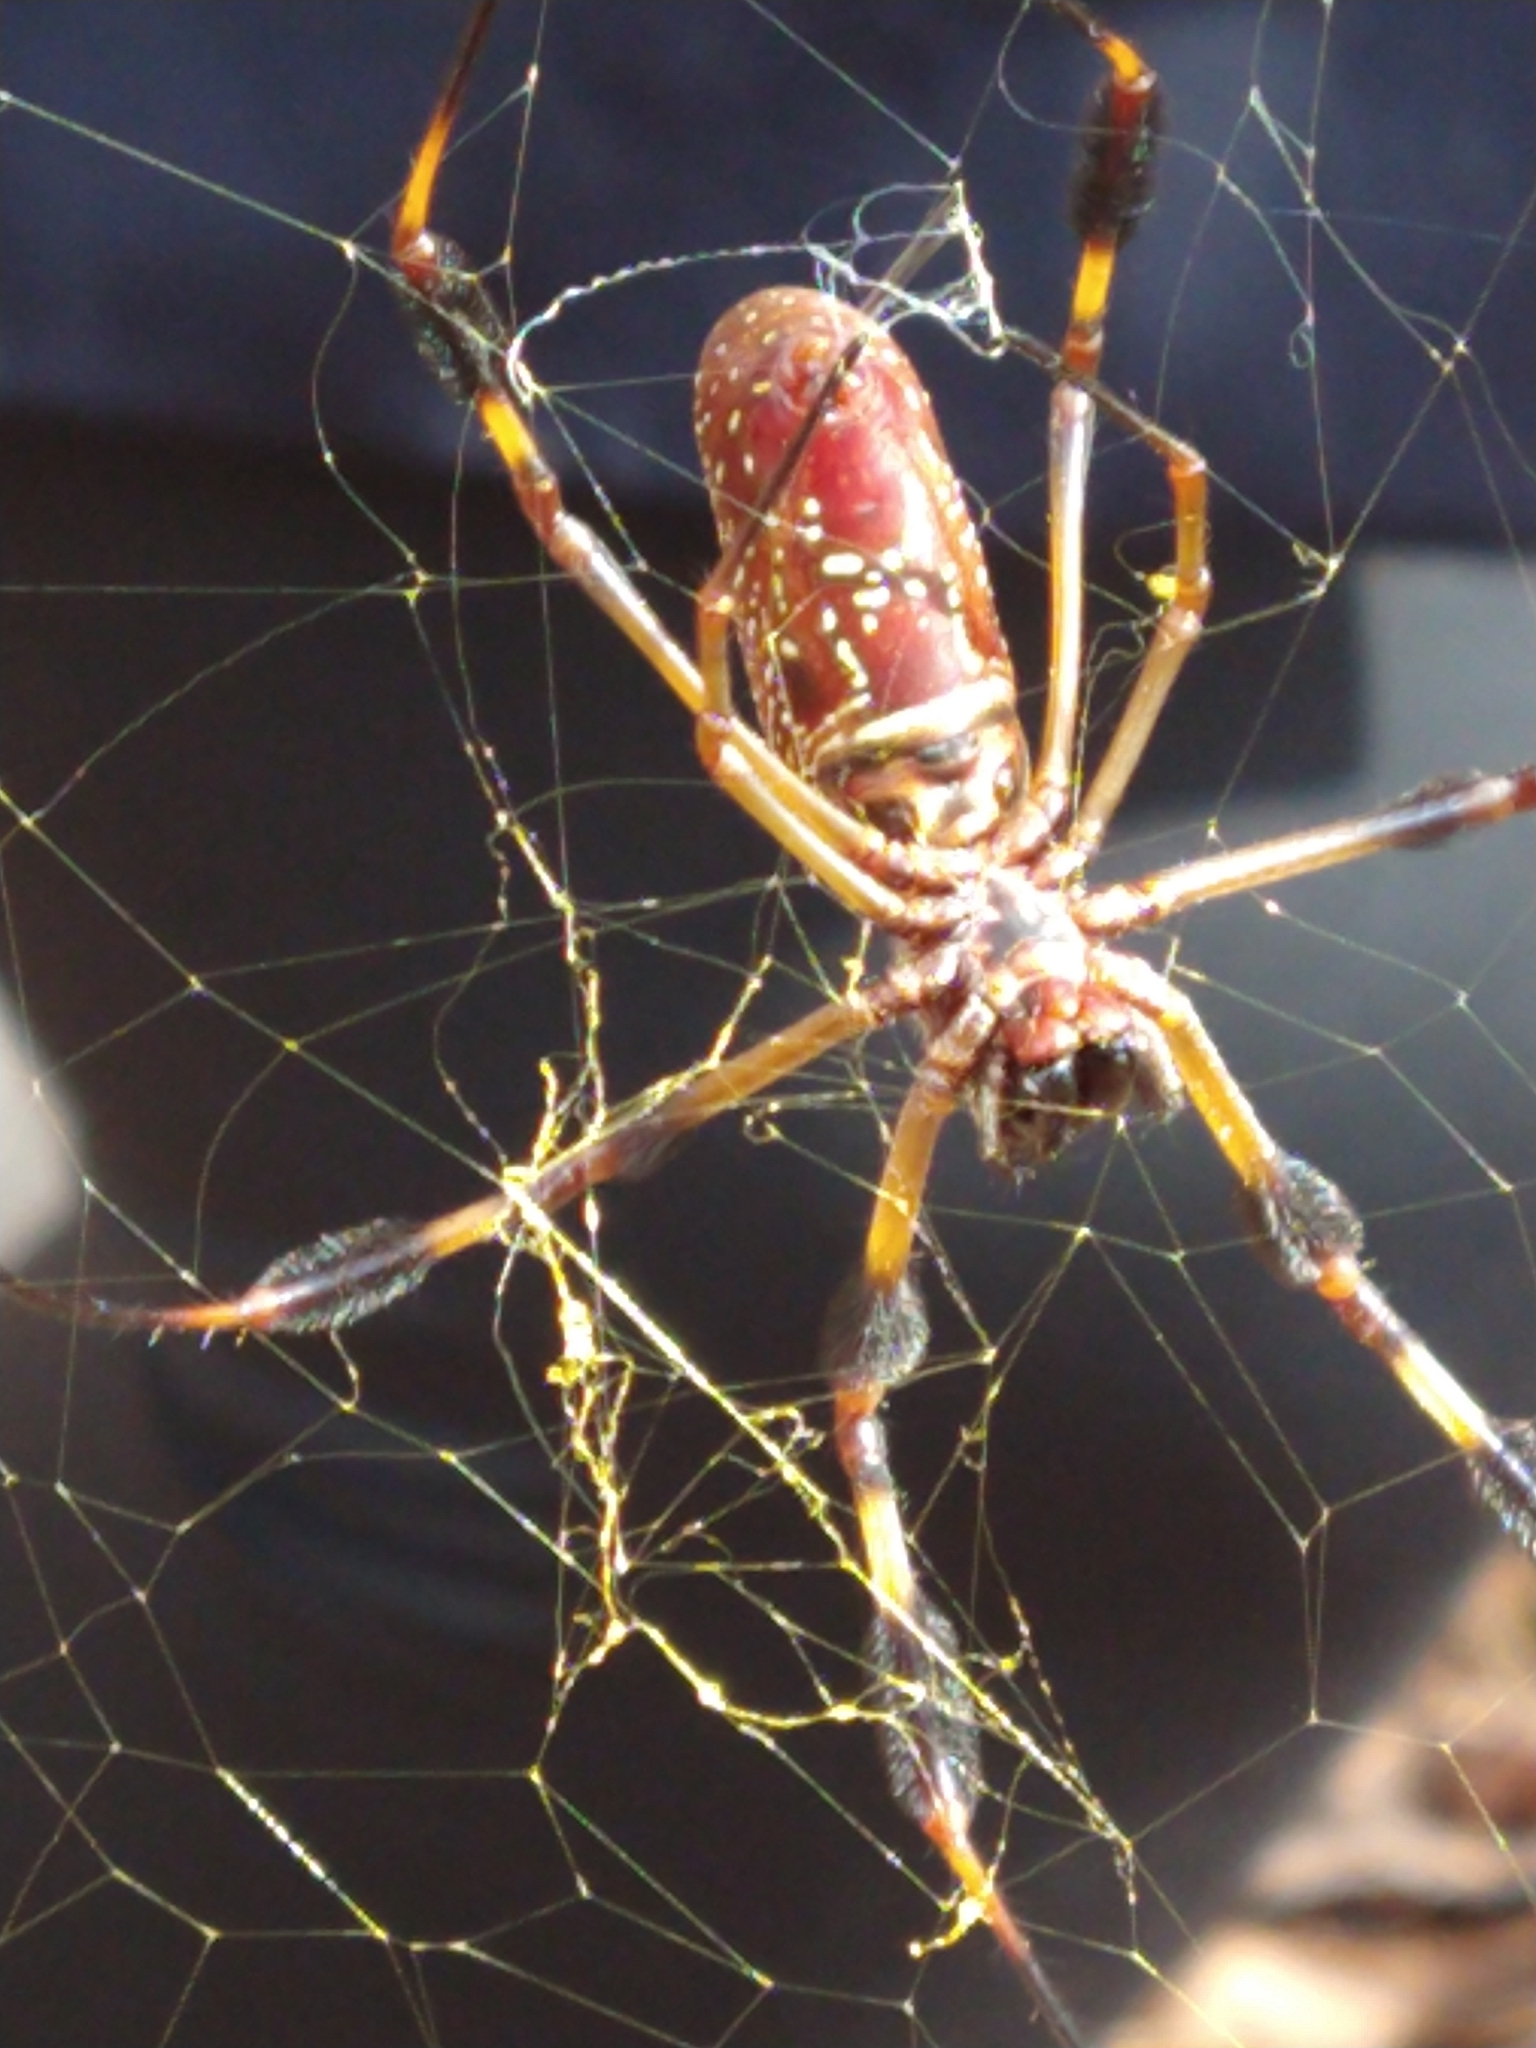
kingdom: Animalia
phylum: Arthropoda
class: Arachnida
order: Araneae
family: Araneidae
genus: Trichonephila
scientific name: Trichonephila clavipes
